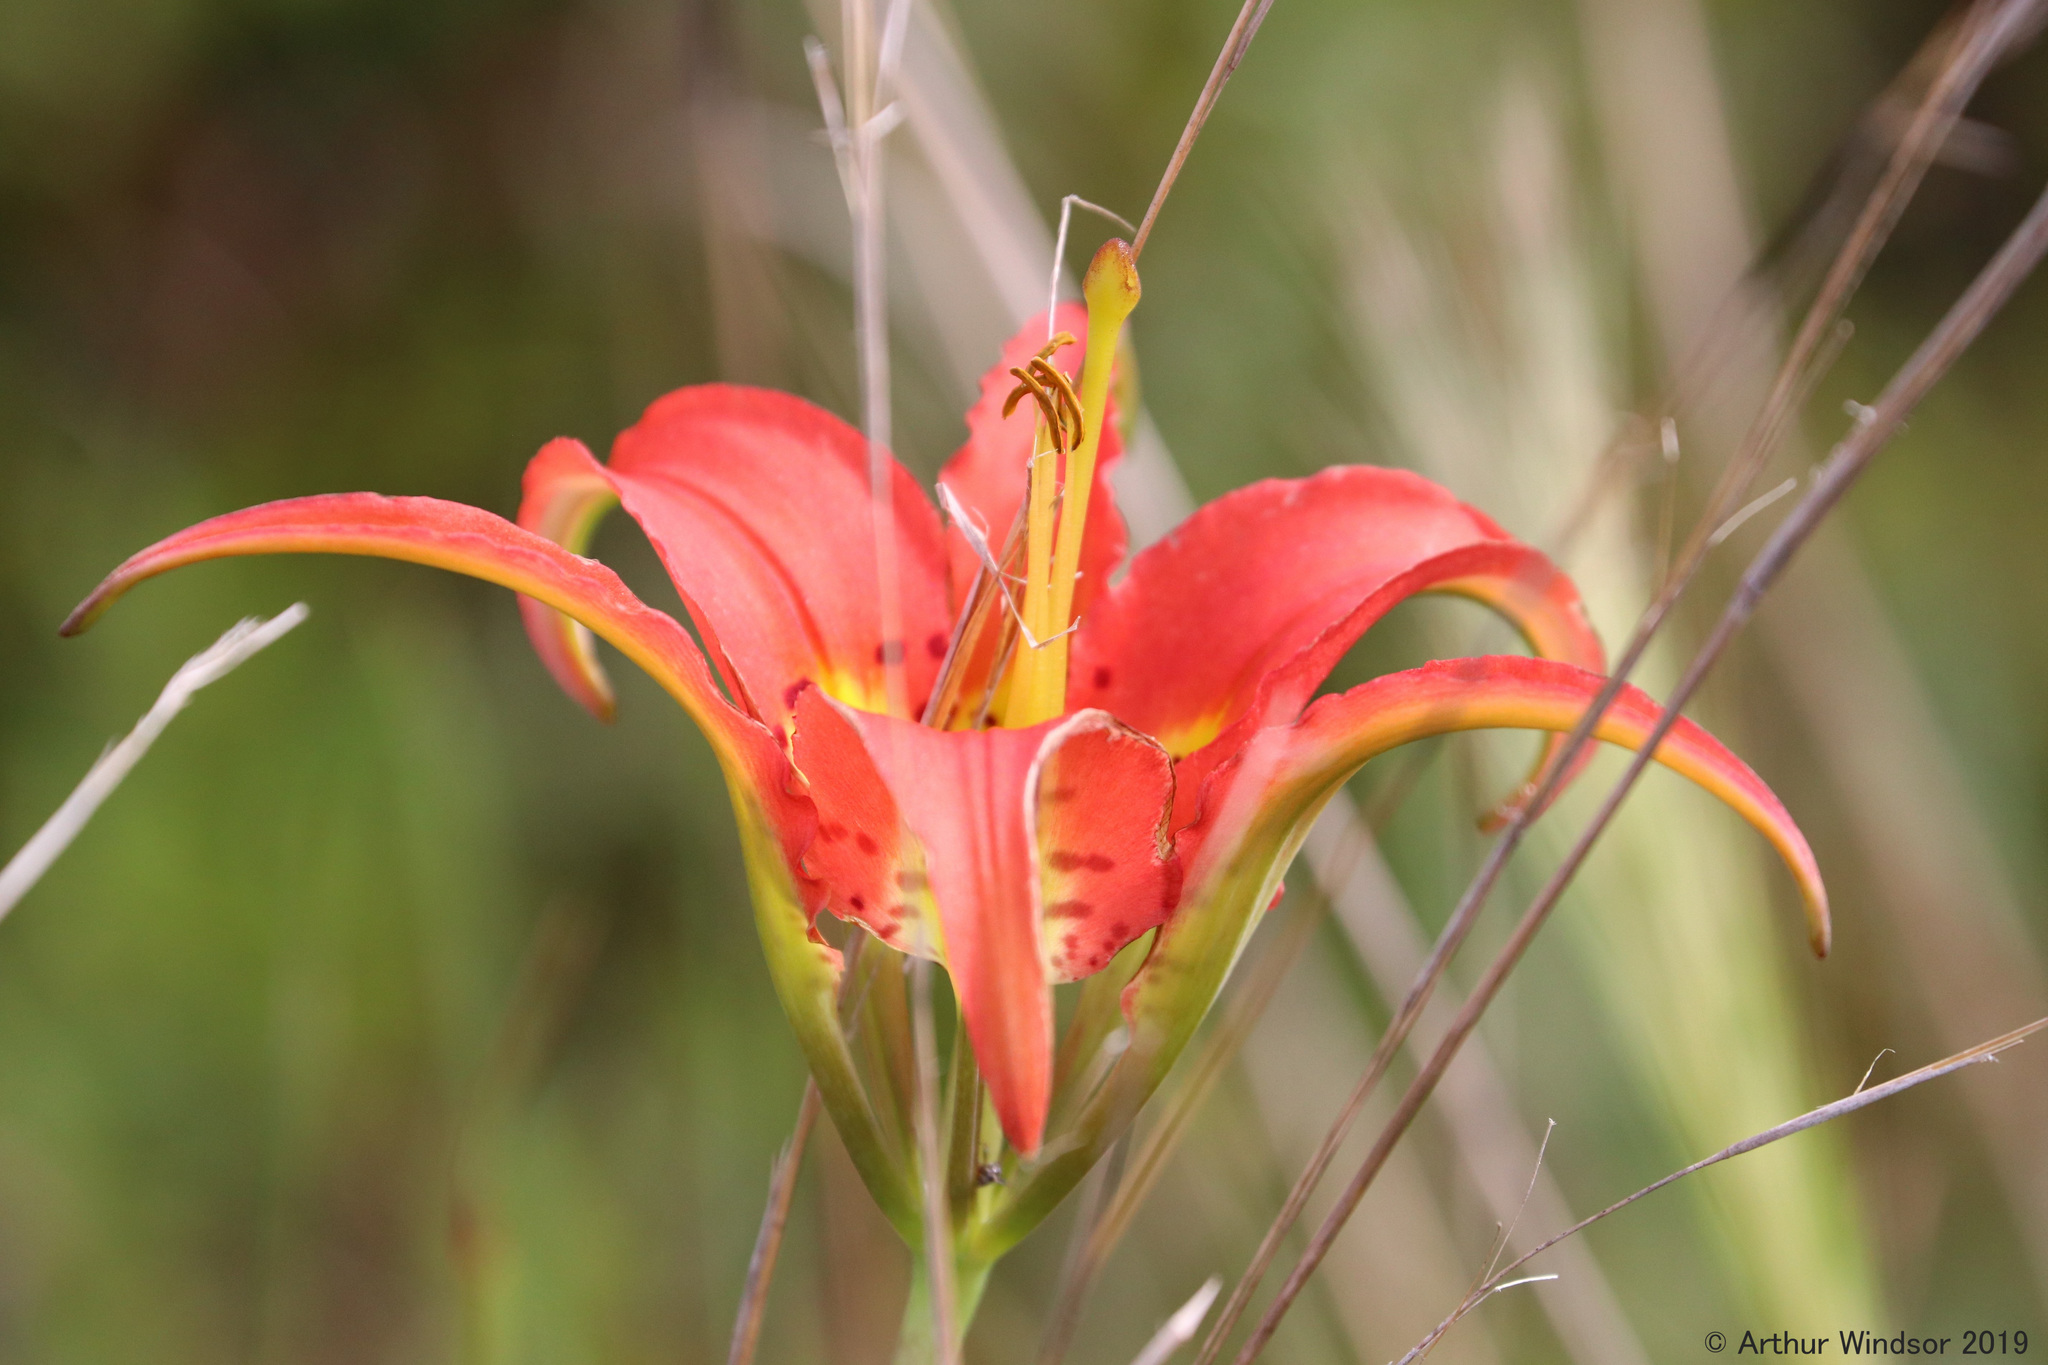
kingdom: Plantae
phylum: Tracheophyta
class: Liliopsida
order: Liliales
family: Liliaceae
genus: Lilium
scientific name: Lilium catesbaei
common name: Catesby's lily
